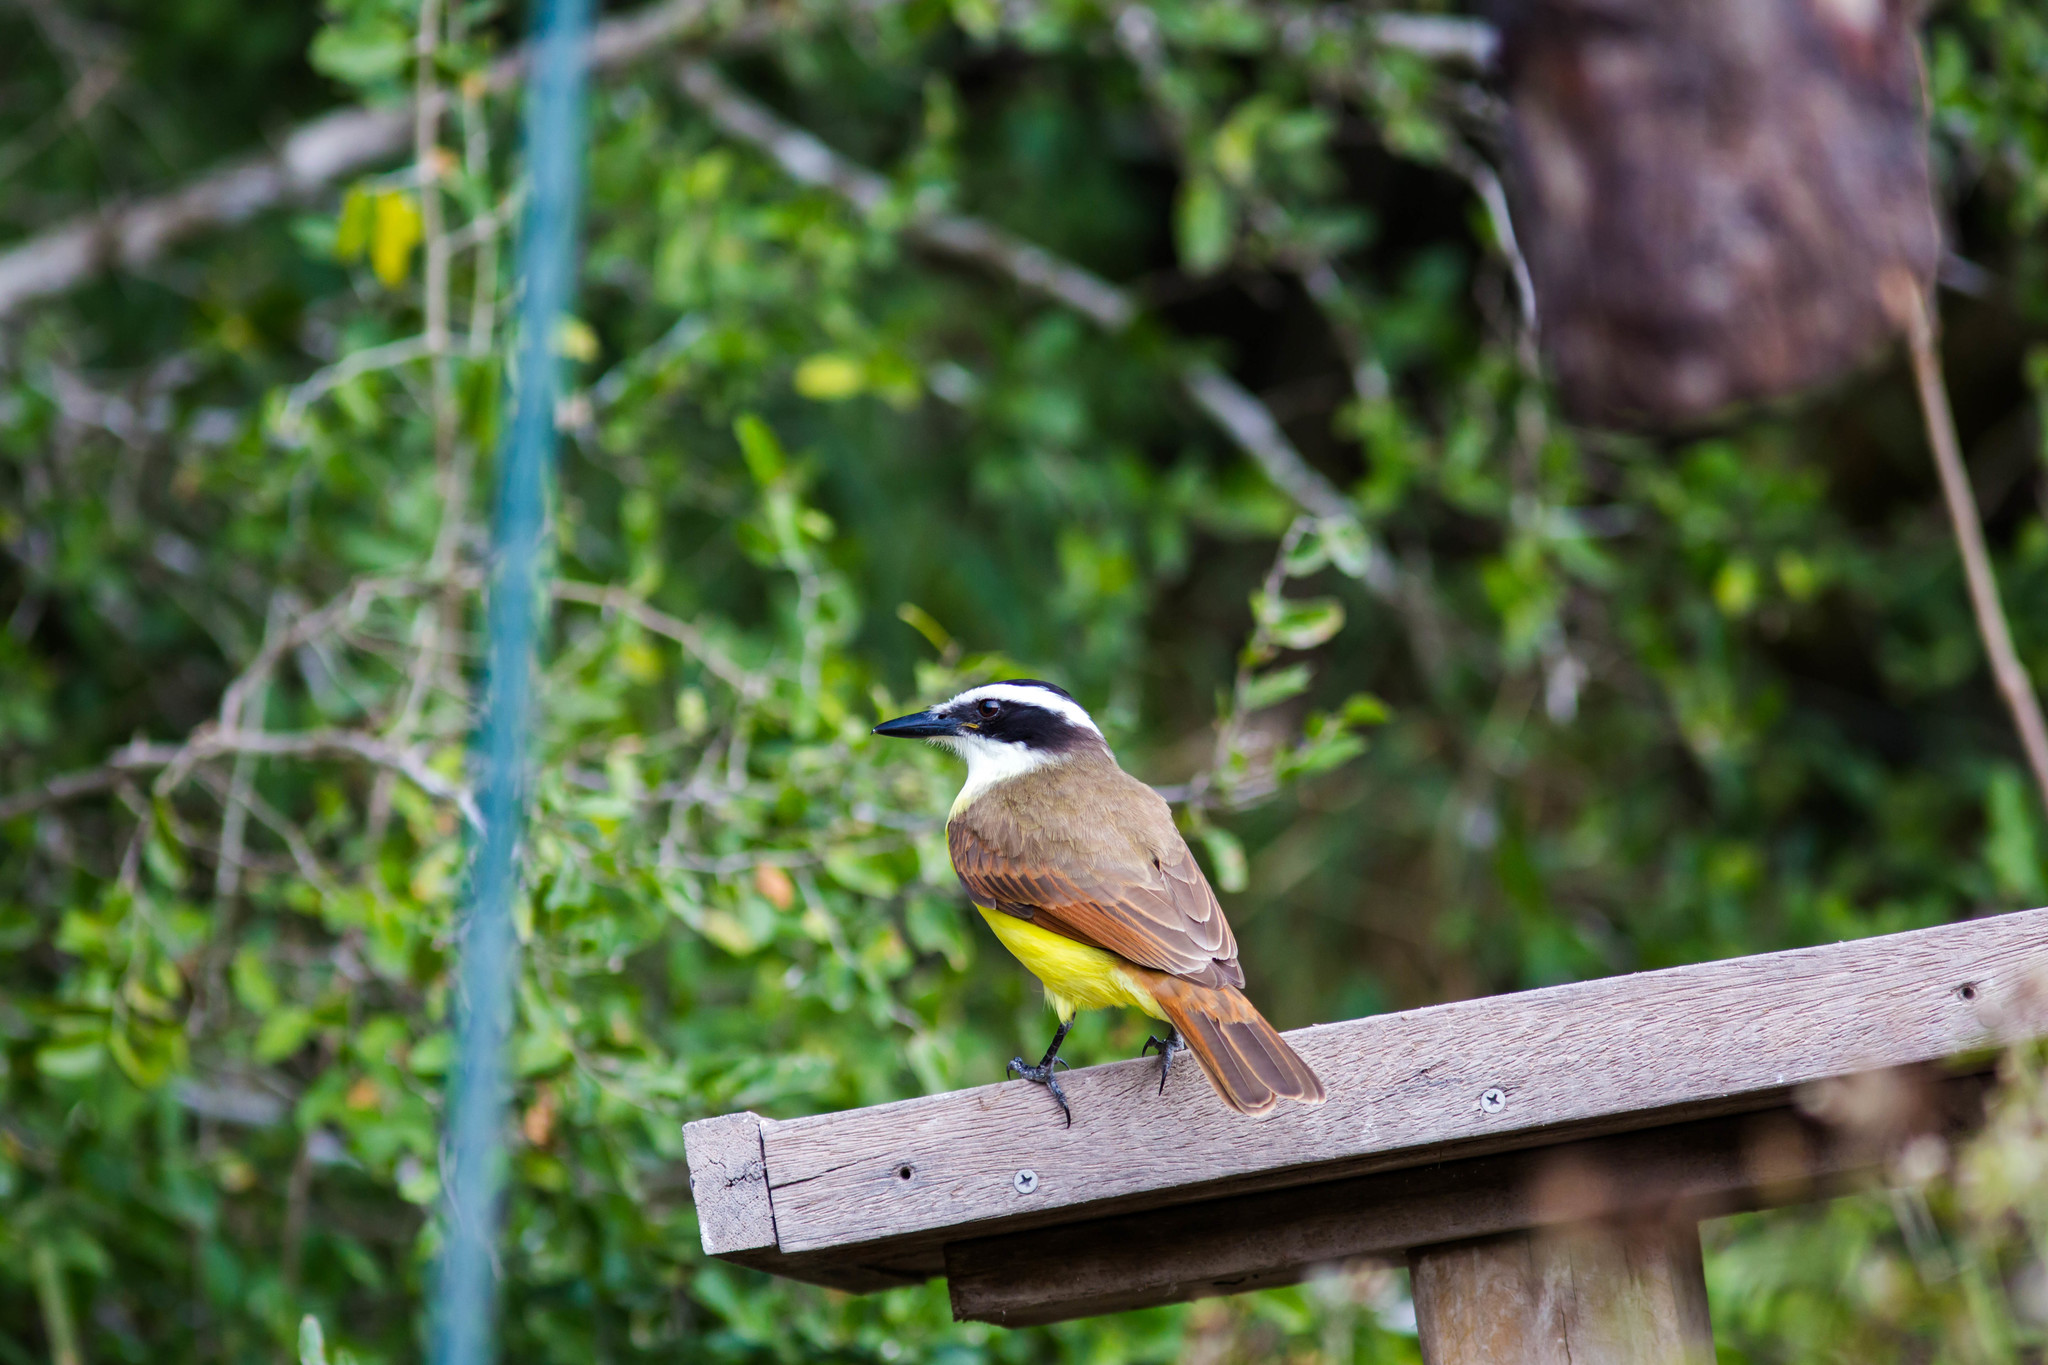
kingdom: Animalia
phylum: Chordata
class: Aves
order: Passeriformes
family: Tyrannidae
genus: Pitangus
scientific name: Pitangus sulphuratus
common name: Great kiskadee
